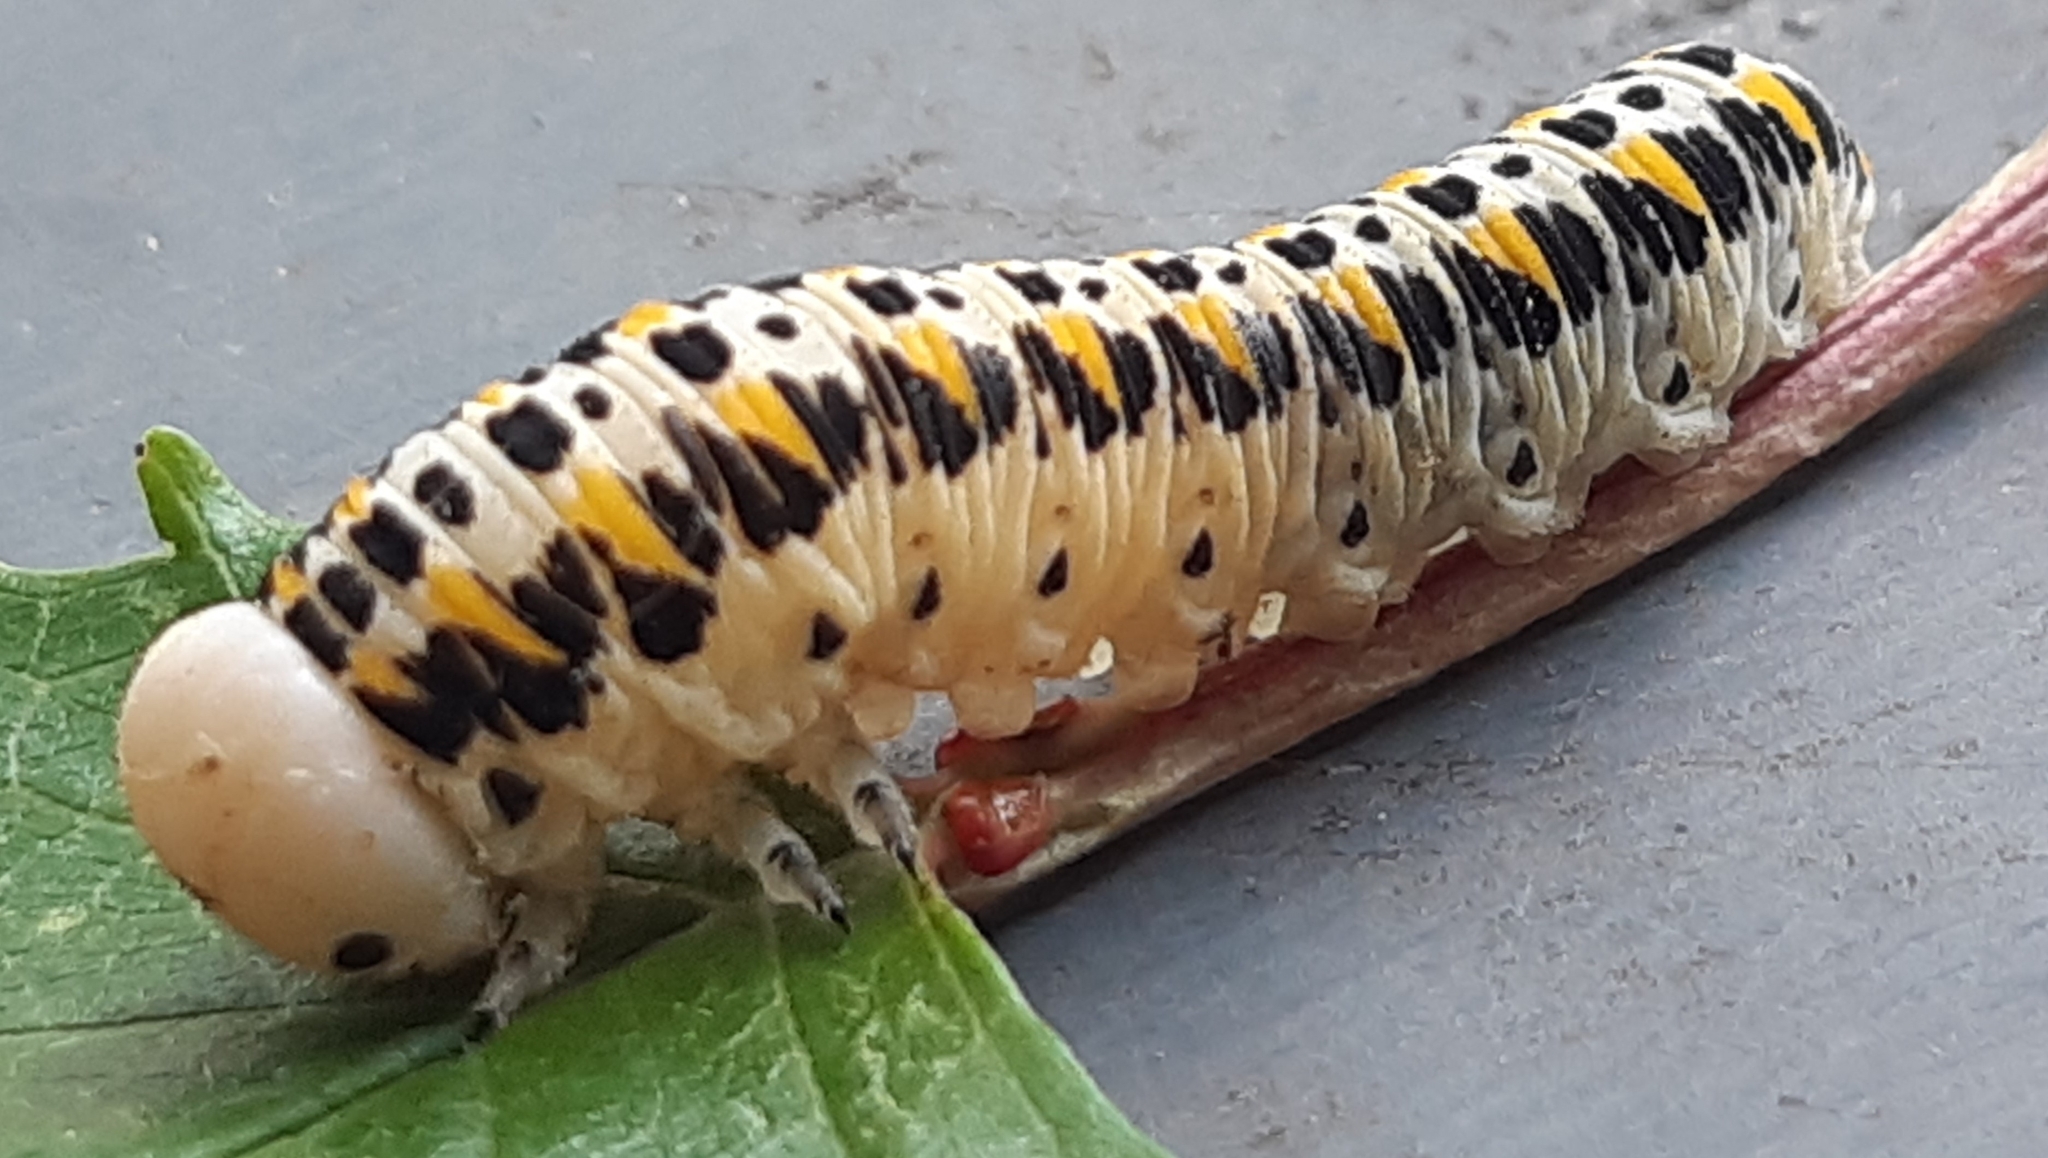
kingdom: Animalia
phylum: Arthropoda
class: Insecta
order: Hymenoptera
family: Cimbicidae
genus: Cimbex
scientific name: Cimbex quadrimaculatus
